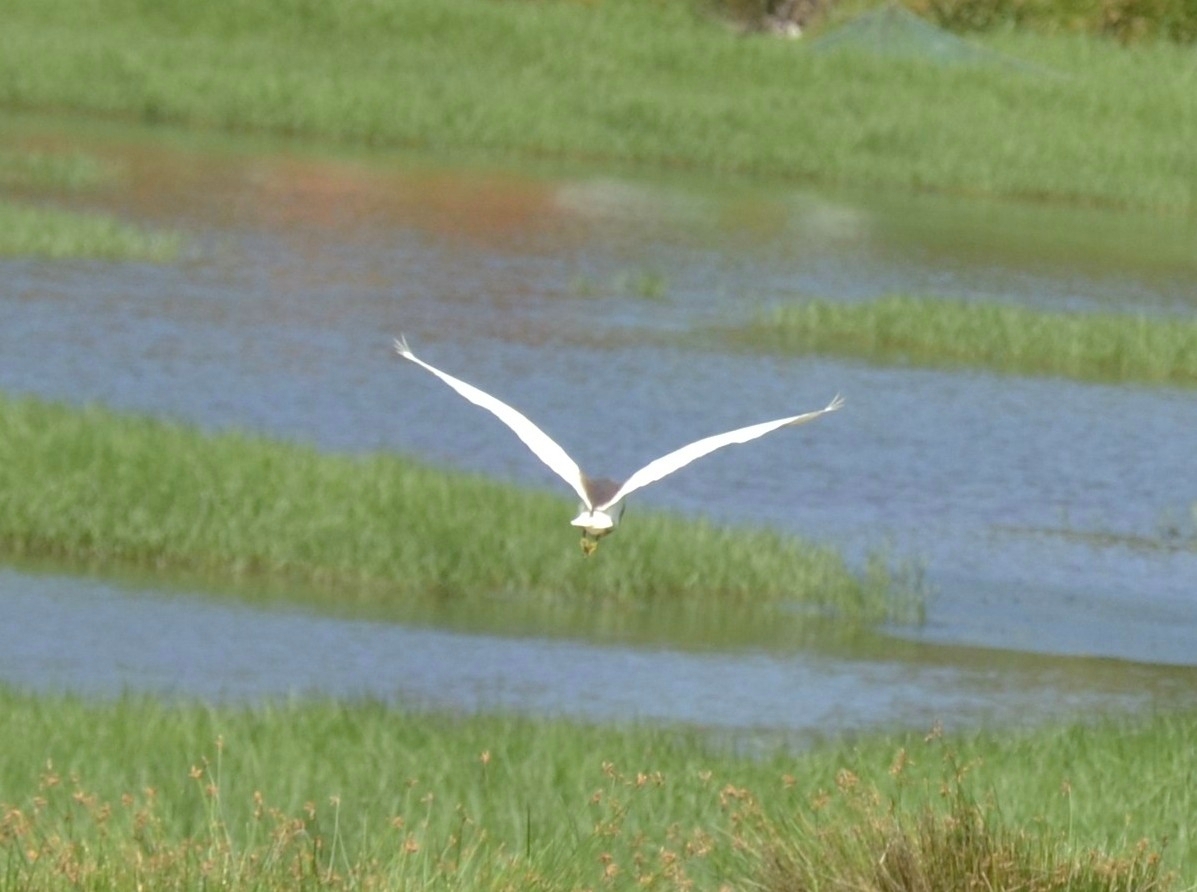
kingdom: Animalia
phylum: Chordata
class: Aves
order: Pelecaniformes
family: Ardeidae
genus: Ardeola
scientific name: Ardeola grayii
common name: Indian pond heron
